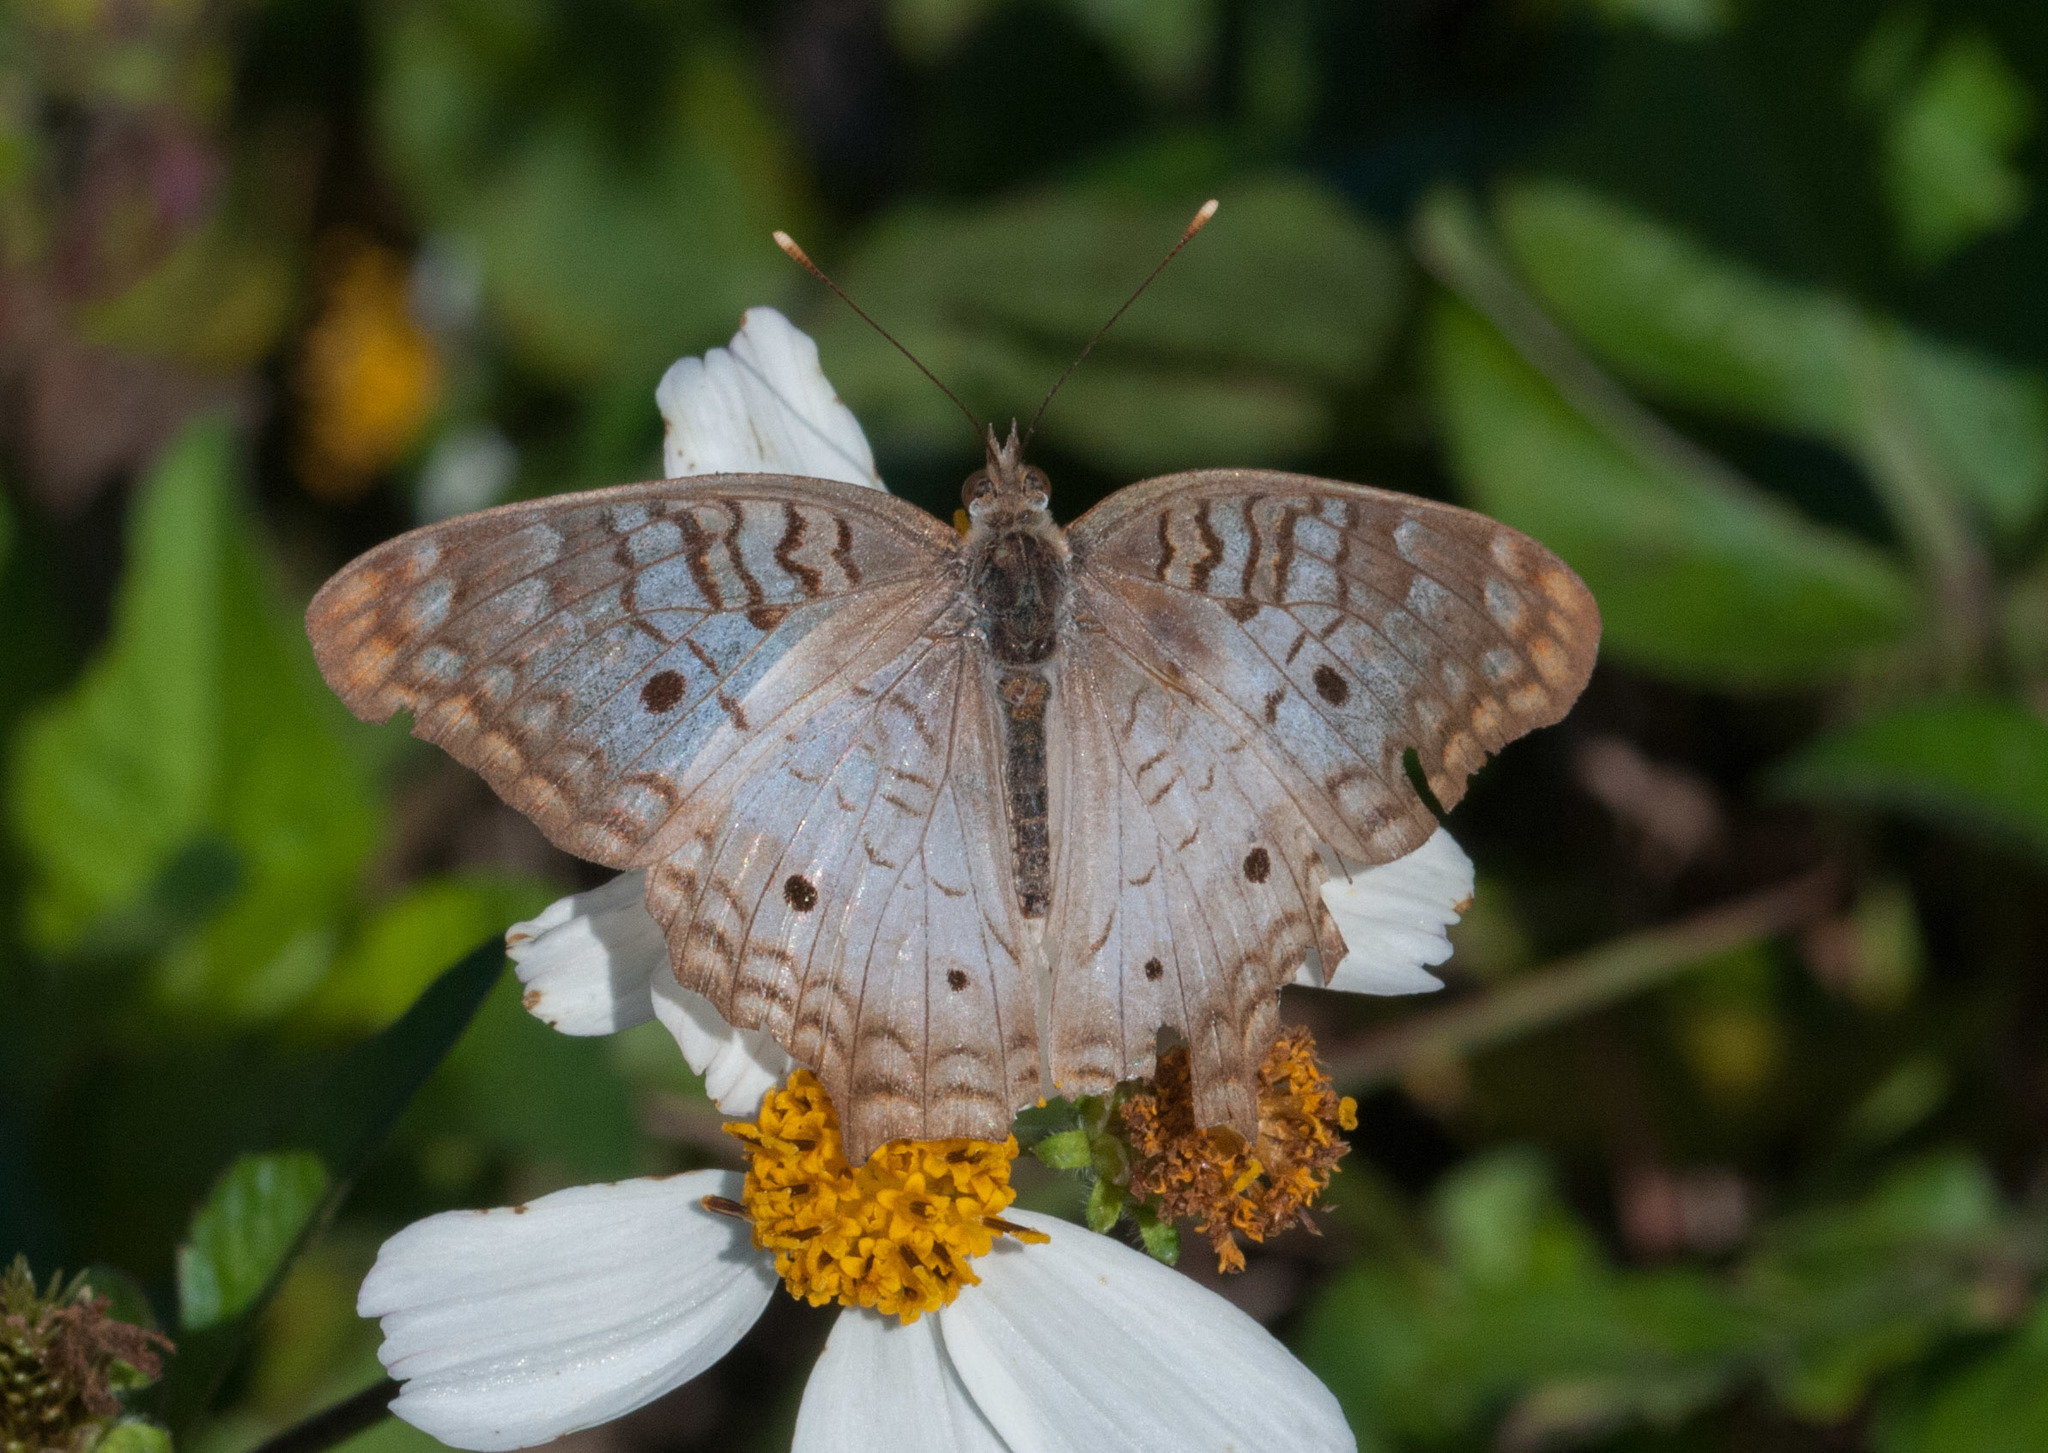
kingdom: Animalia
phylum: Arthropoda
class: Insecta
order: Lepidoptera
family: Nymphalidae
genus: Anartia
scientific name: Anartia jatrophae
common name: White peacock
